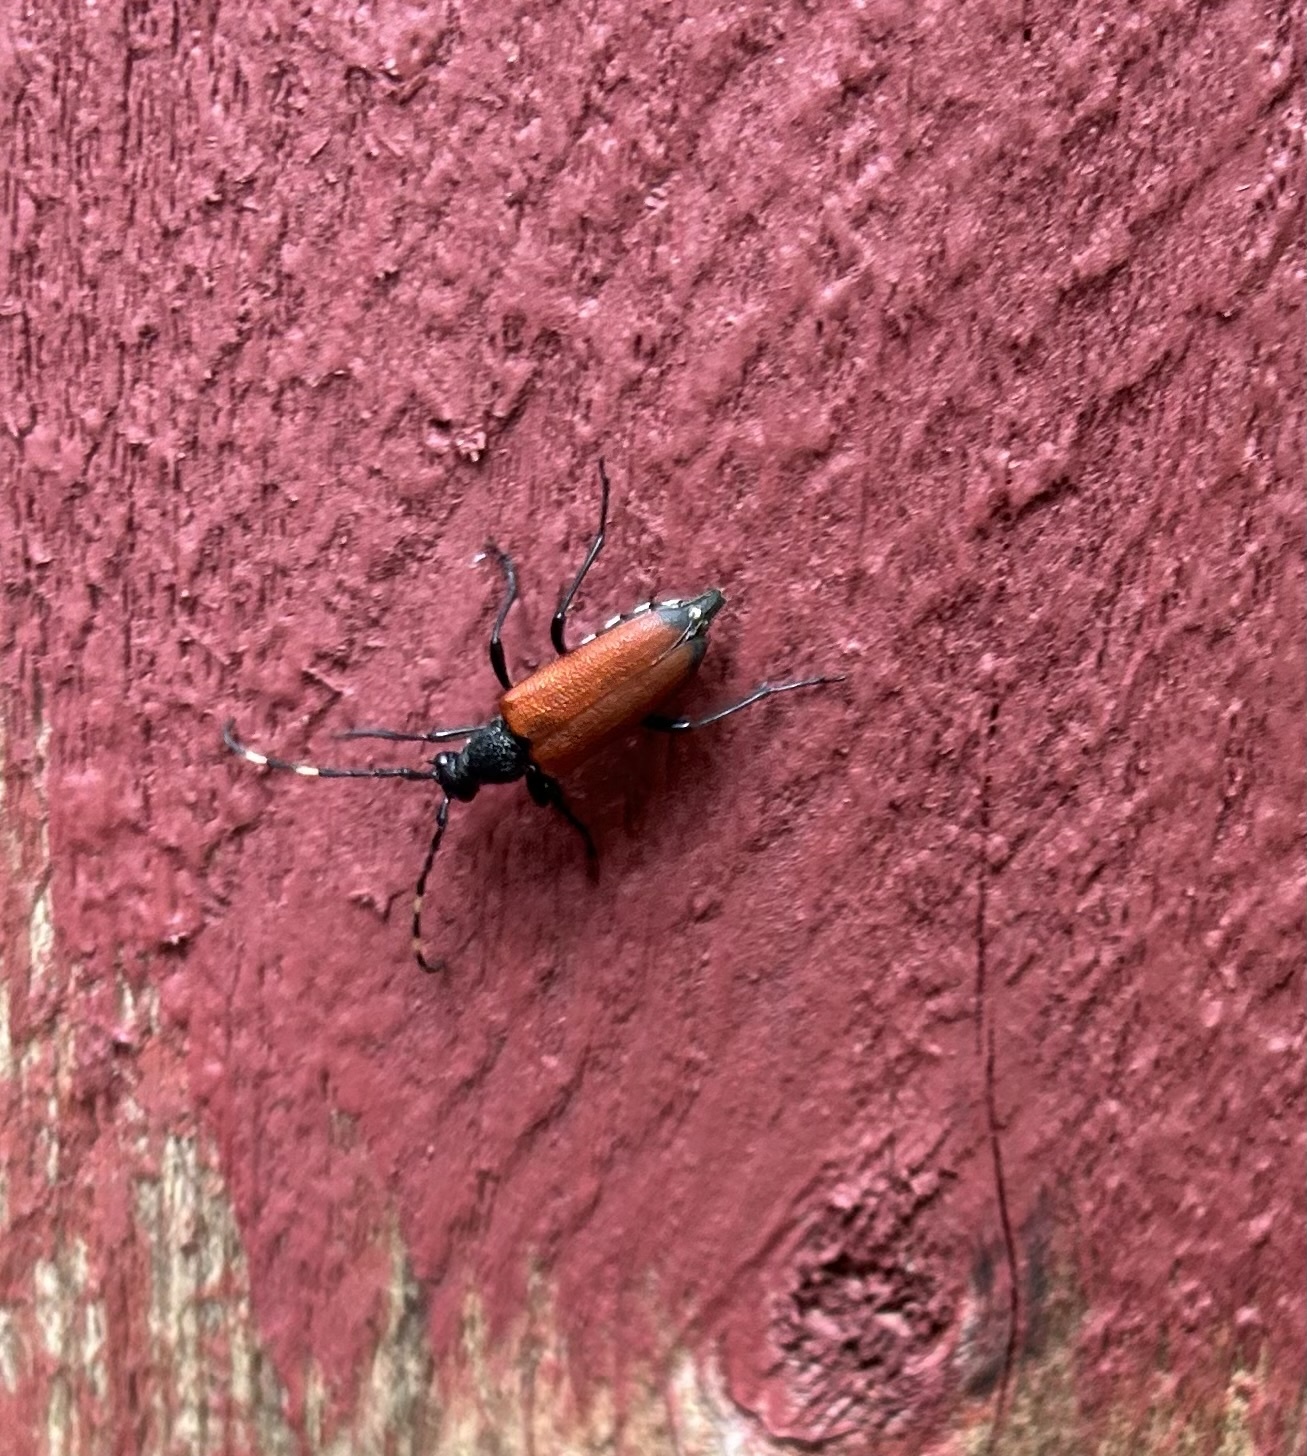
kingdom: Animalia
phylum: Arthropoda
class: Insecta
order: Coleoptera
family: Cerambycidae
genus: Stictoleptura
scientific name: Stictoleptura canadensis
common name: Red-shouldered pine borer
